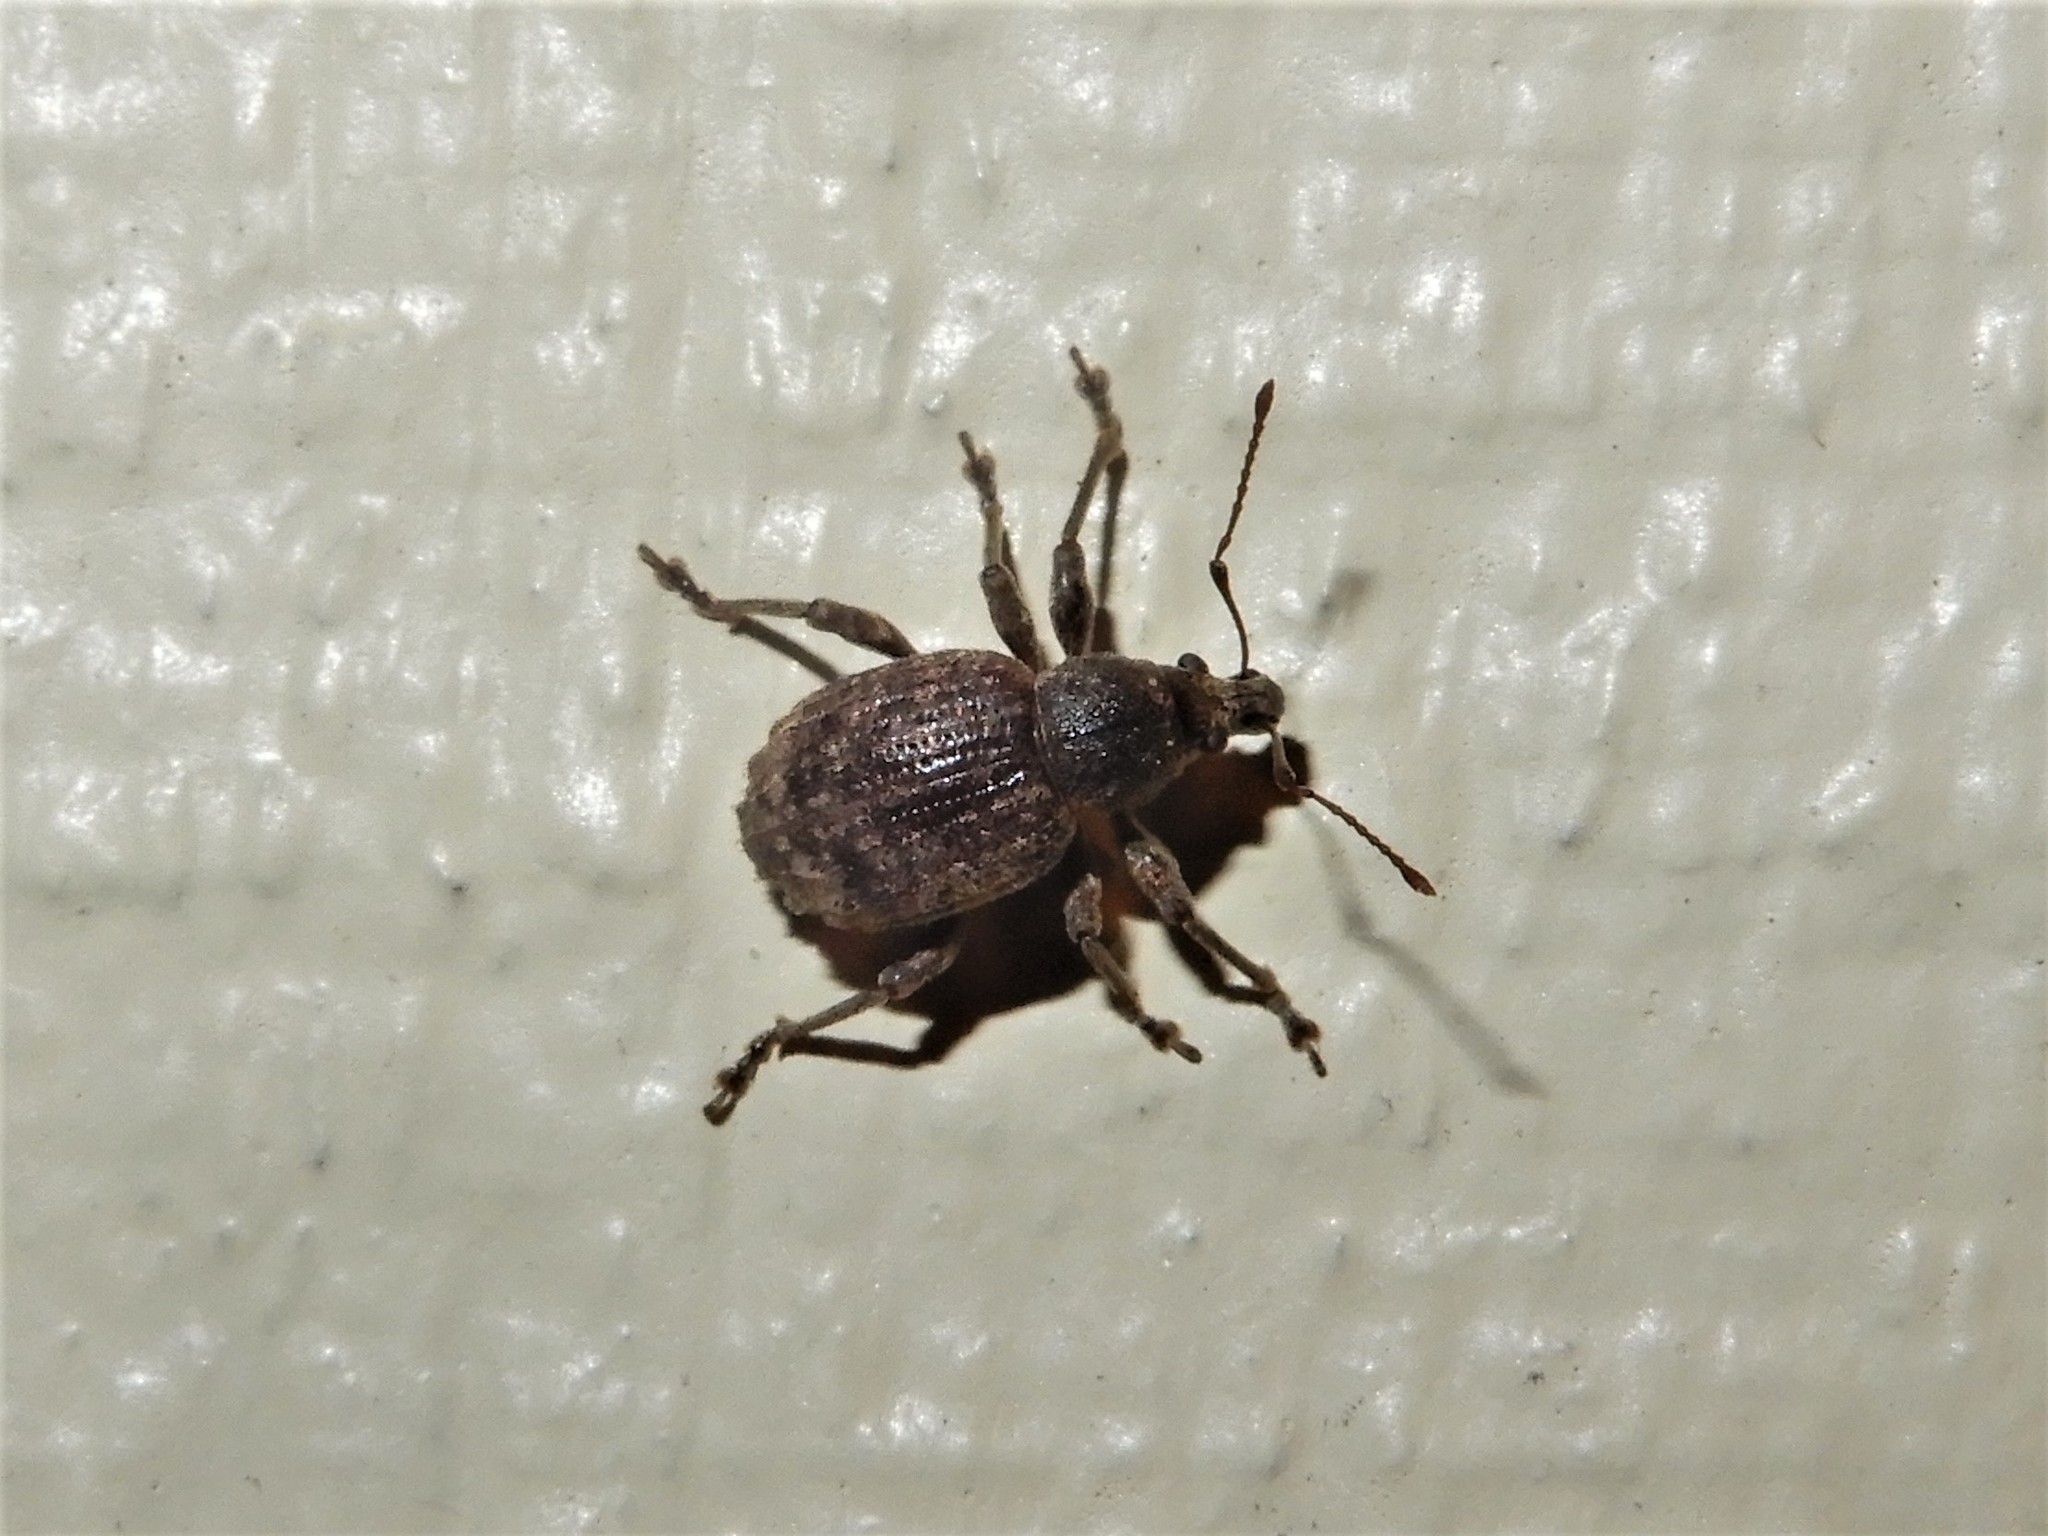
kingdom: Animalia
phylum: Arthropoda
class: Insecta
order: Coleoptera
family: Curculionidae
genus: Phlyctinus
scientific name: Phlyctinus callosus
